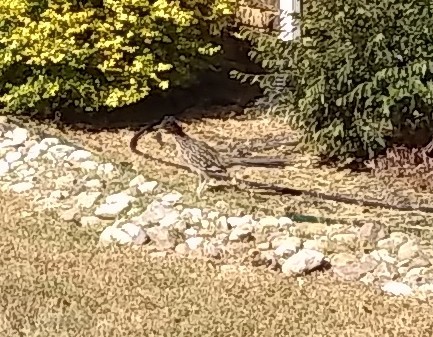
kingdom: Animalia
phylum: Chordata
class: Aves
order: Cuculiformes
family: Cuculidae
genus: Geococcyx
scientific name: Geococcyx californianus
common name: Greater roadrunner
